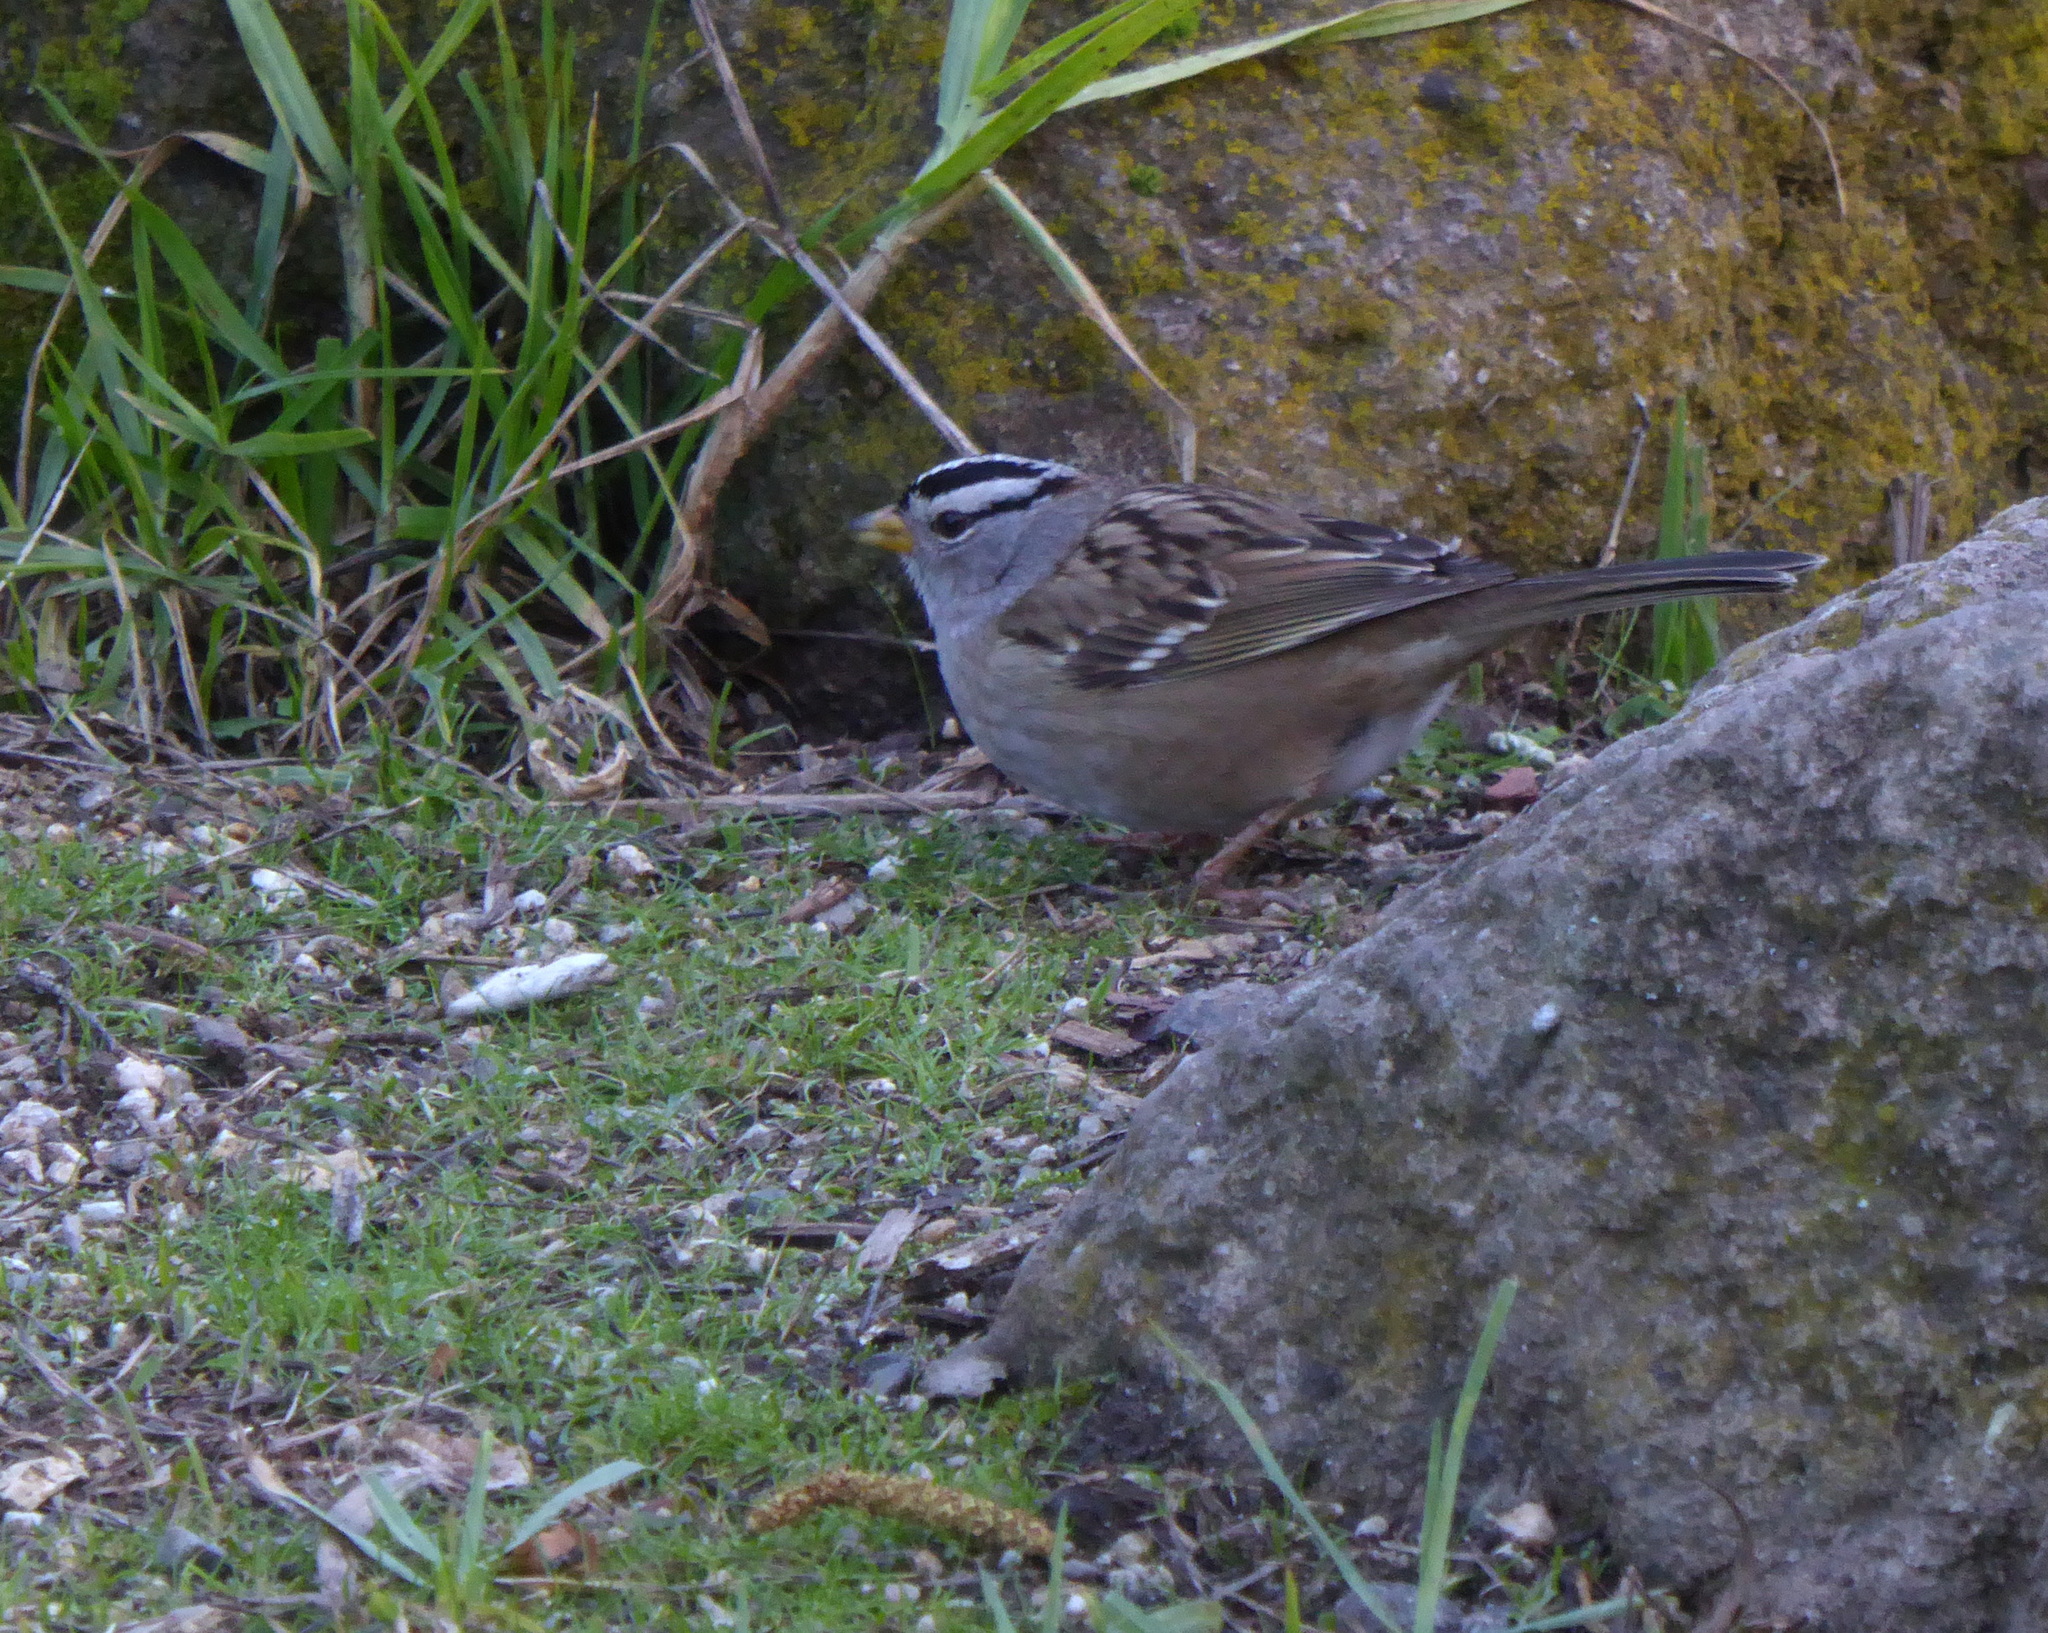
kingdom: Animalia
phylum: Chordata
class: Aves
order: Passeriformes
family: Passerellidae
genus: Zonotrichia
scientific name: Zonotrichia leucophrys
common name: White-crowned sparrow
